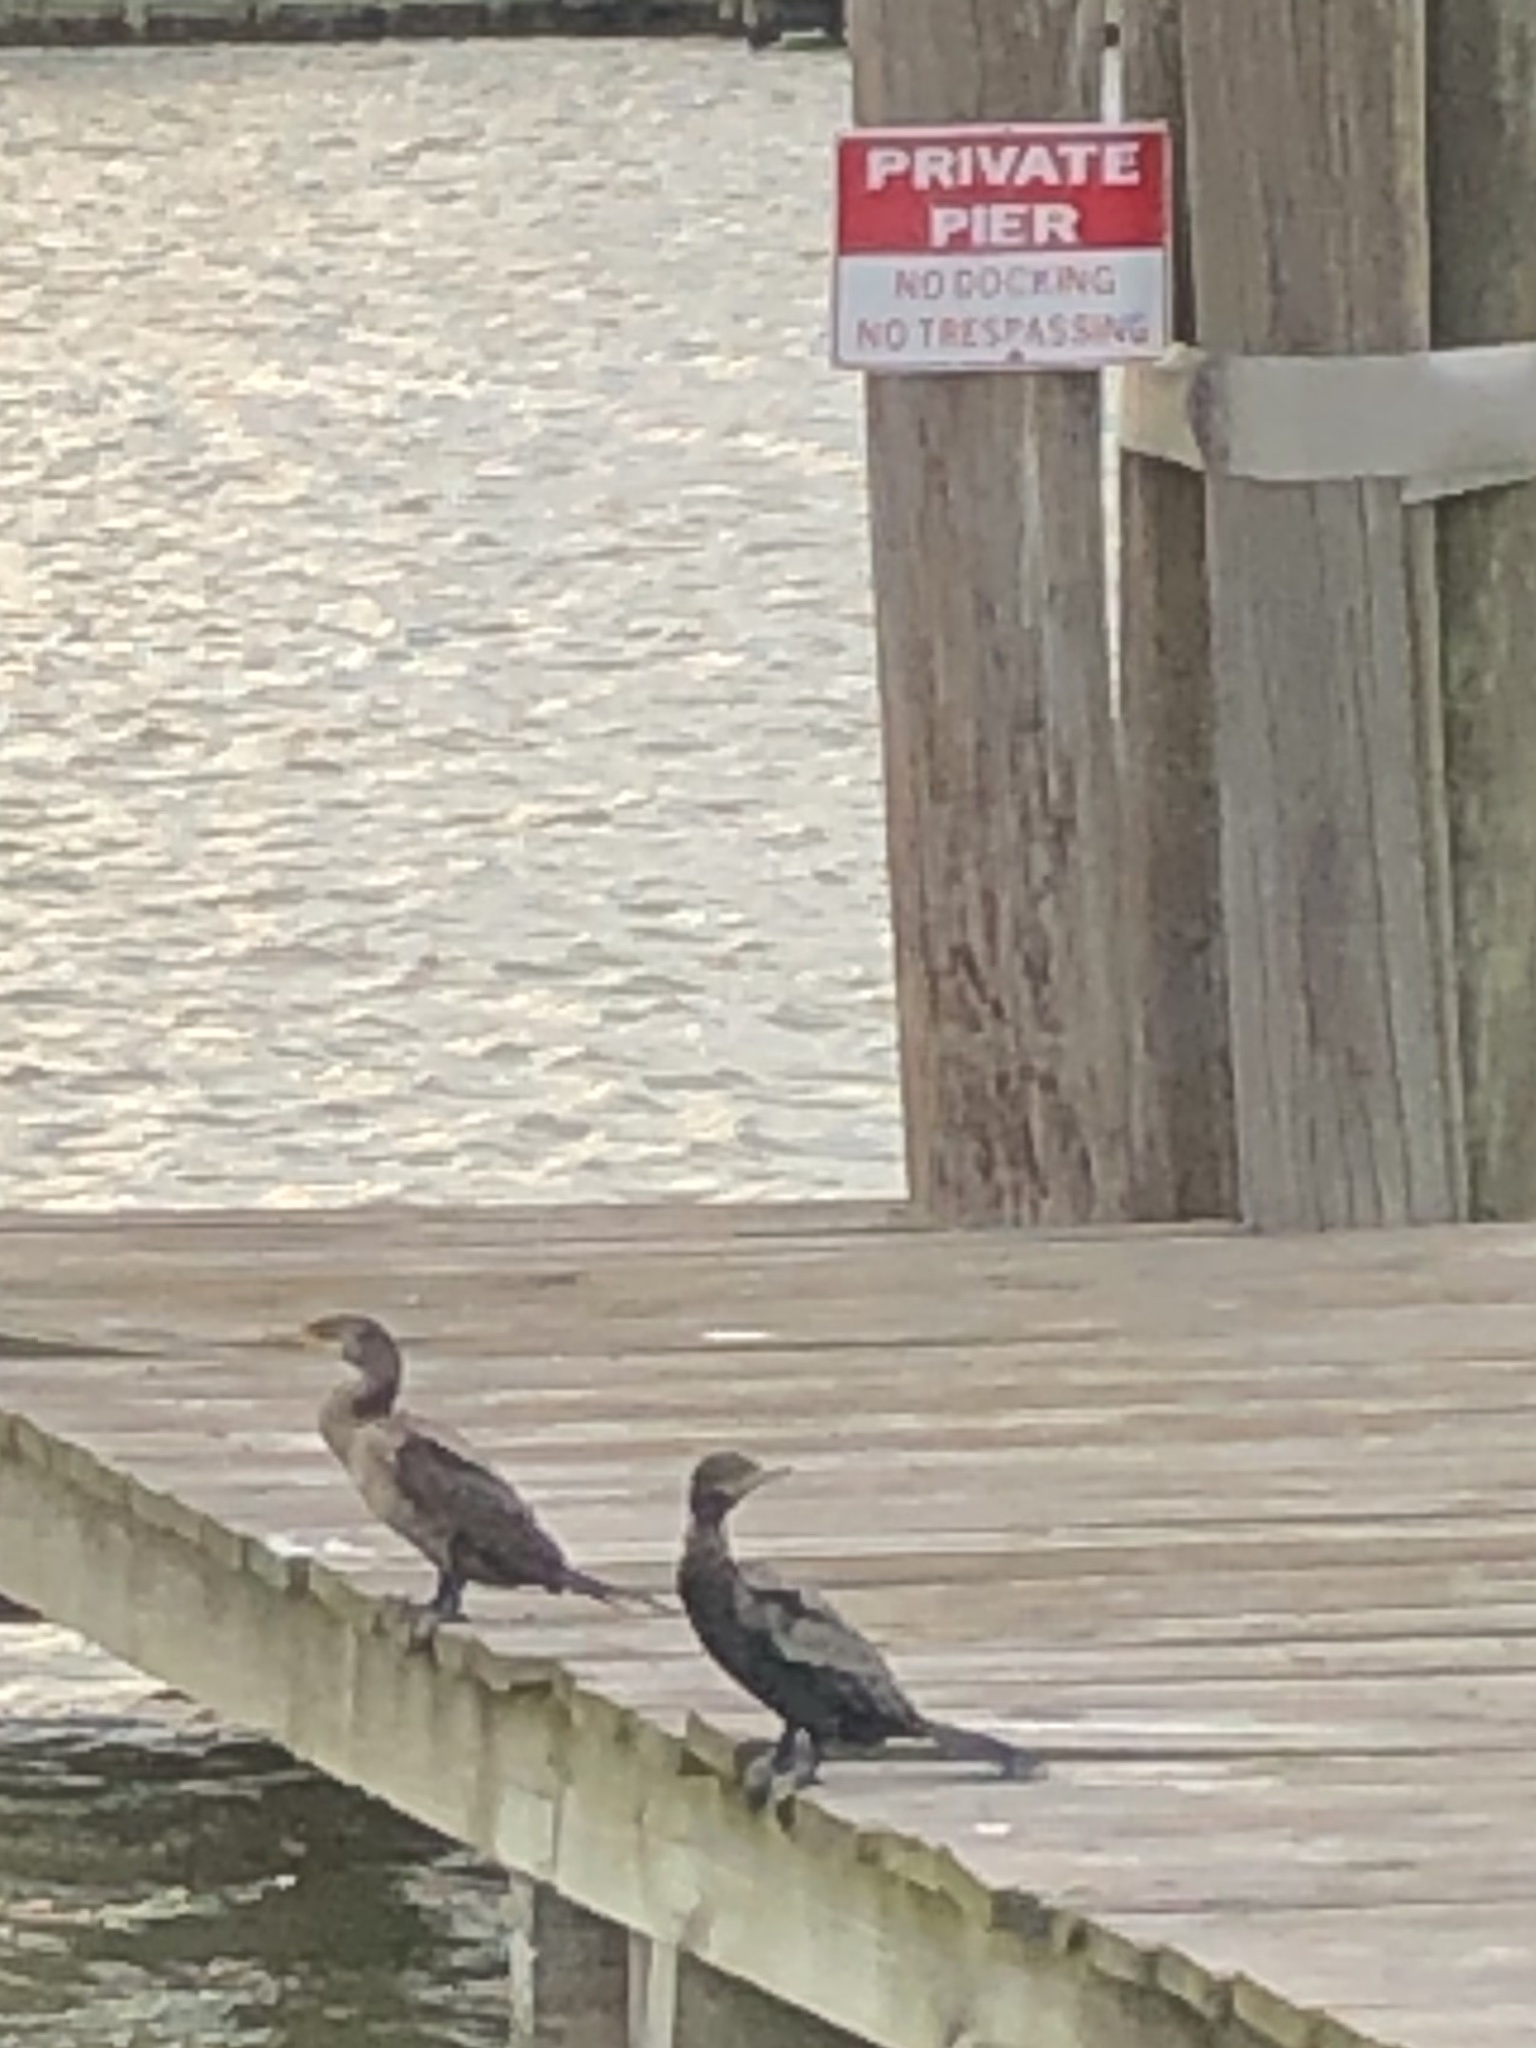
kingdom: Animalia
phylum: Chordata
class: Aves
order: Suliformes
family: Phalacrocoracidae
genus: Phalacrocorax
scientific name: Phalacrocorax brasilianus
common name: Neotropic cormorant
